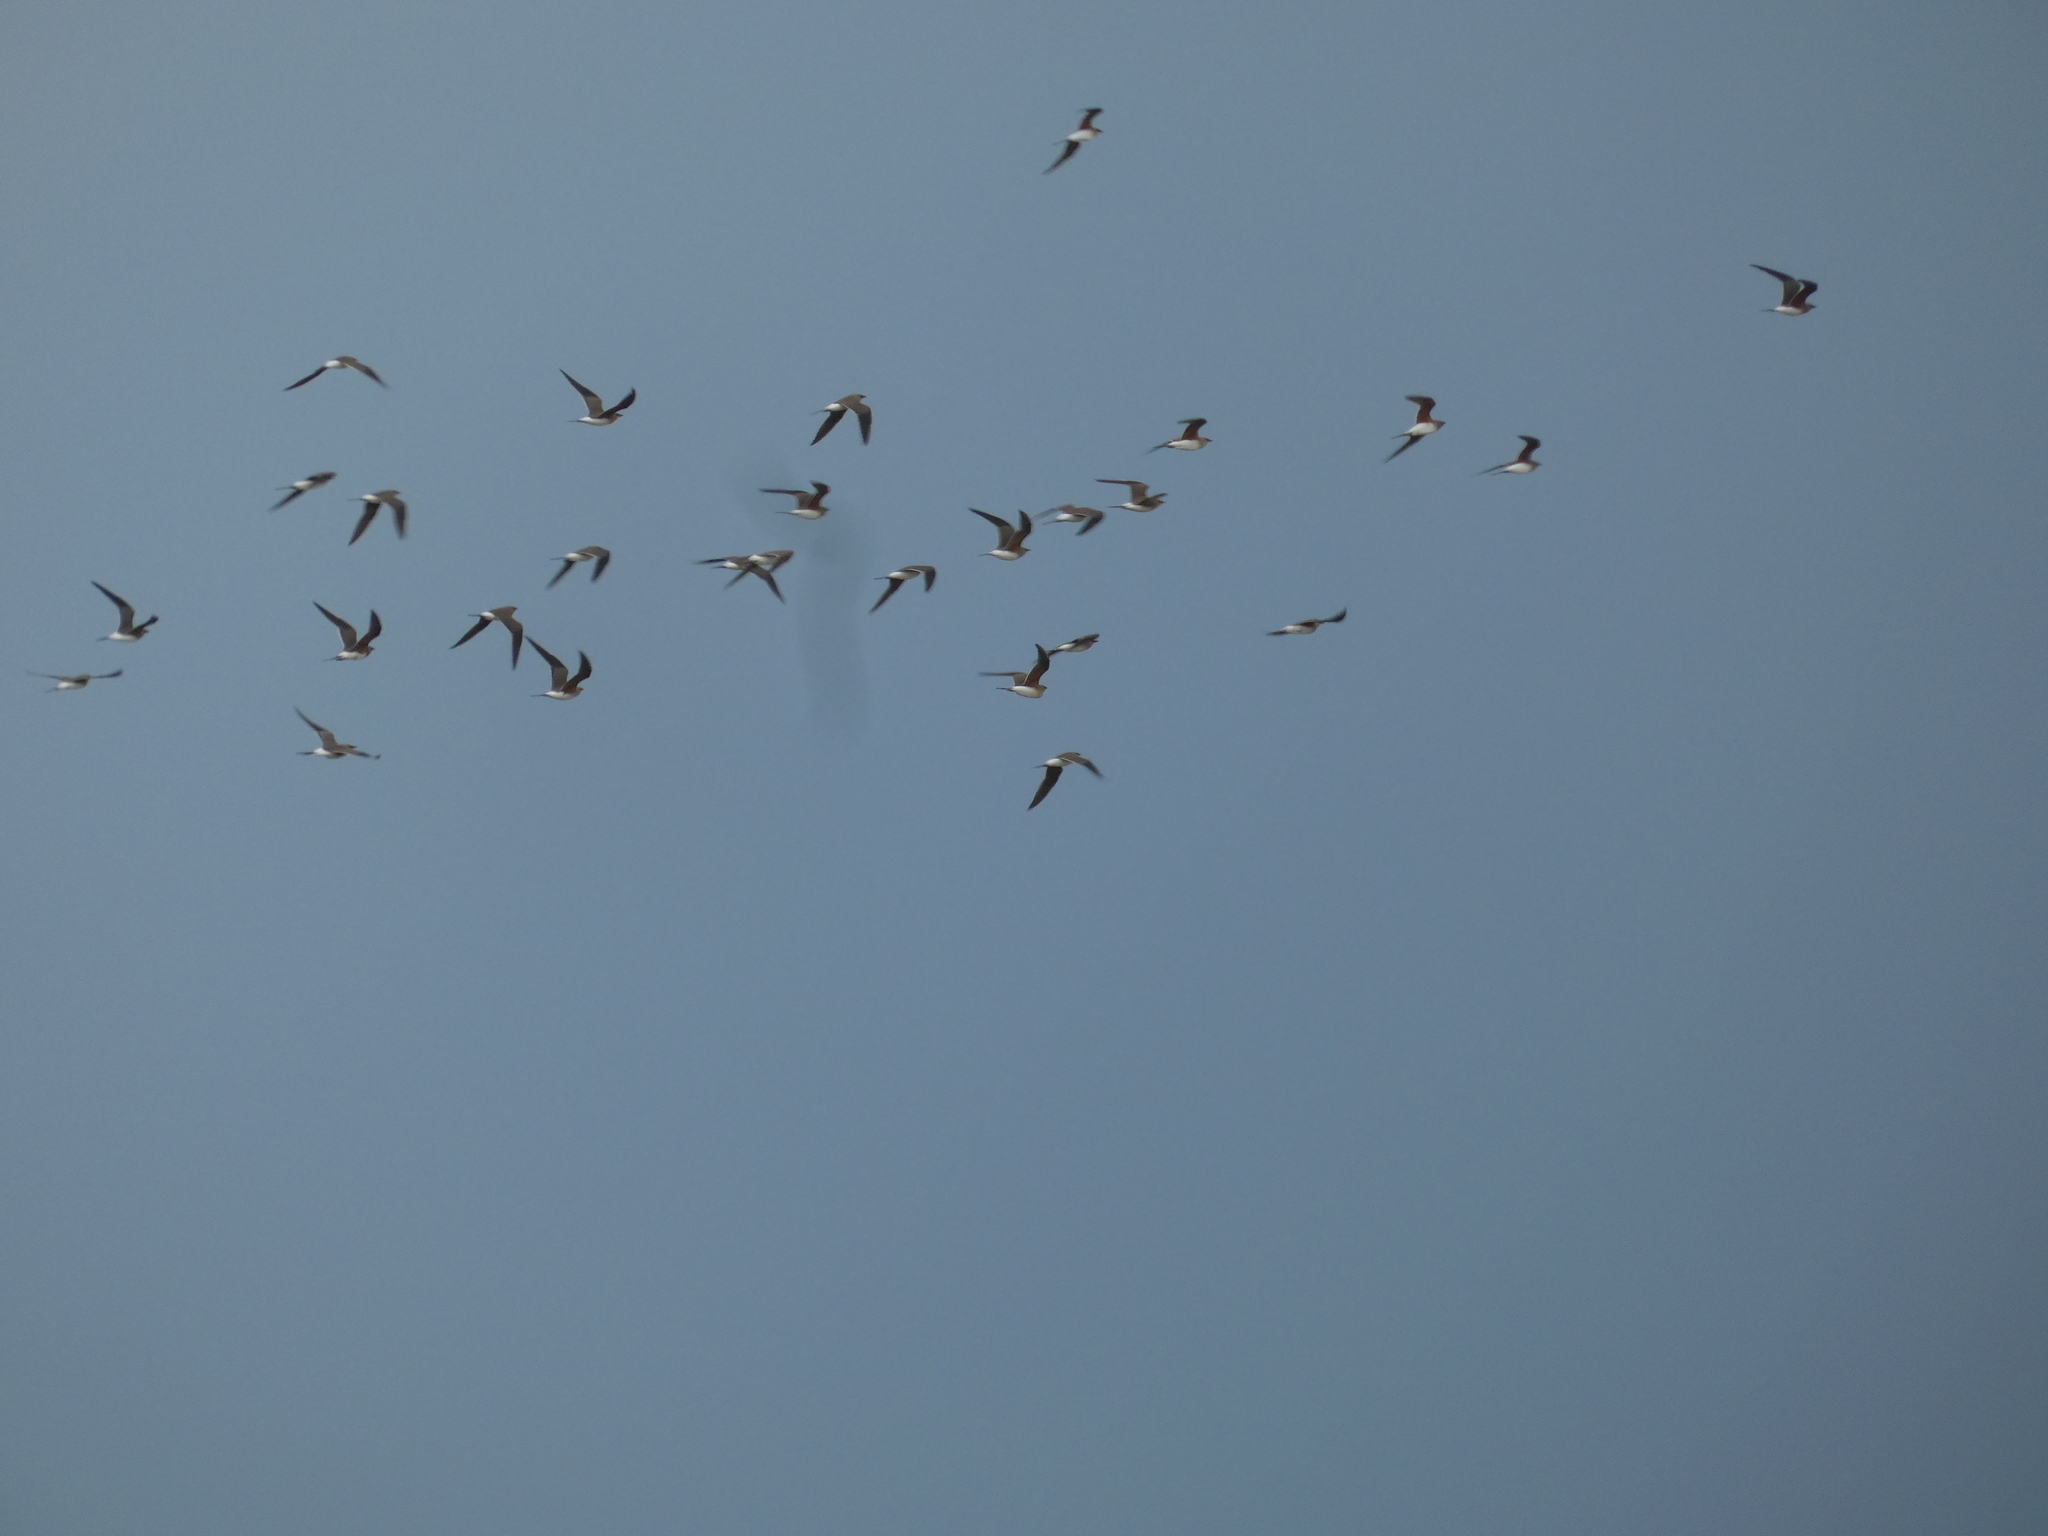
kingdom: Animalia
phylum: Chordata
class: Aves
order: Charadriiformes
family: Glareolidae
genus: Glareola
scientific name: Glareola pratincola
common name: Collared pratincole
